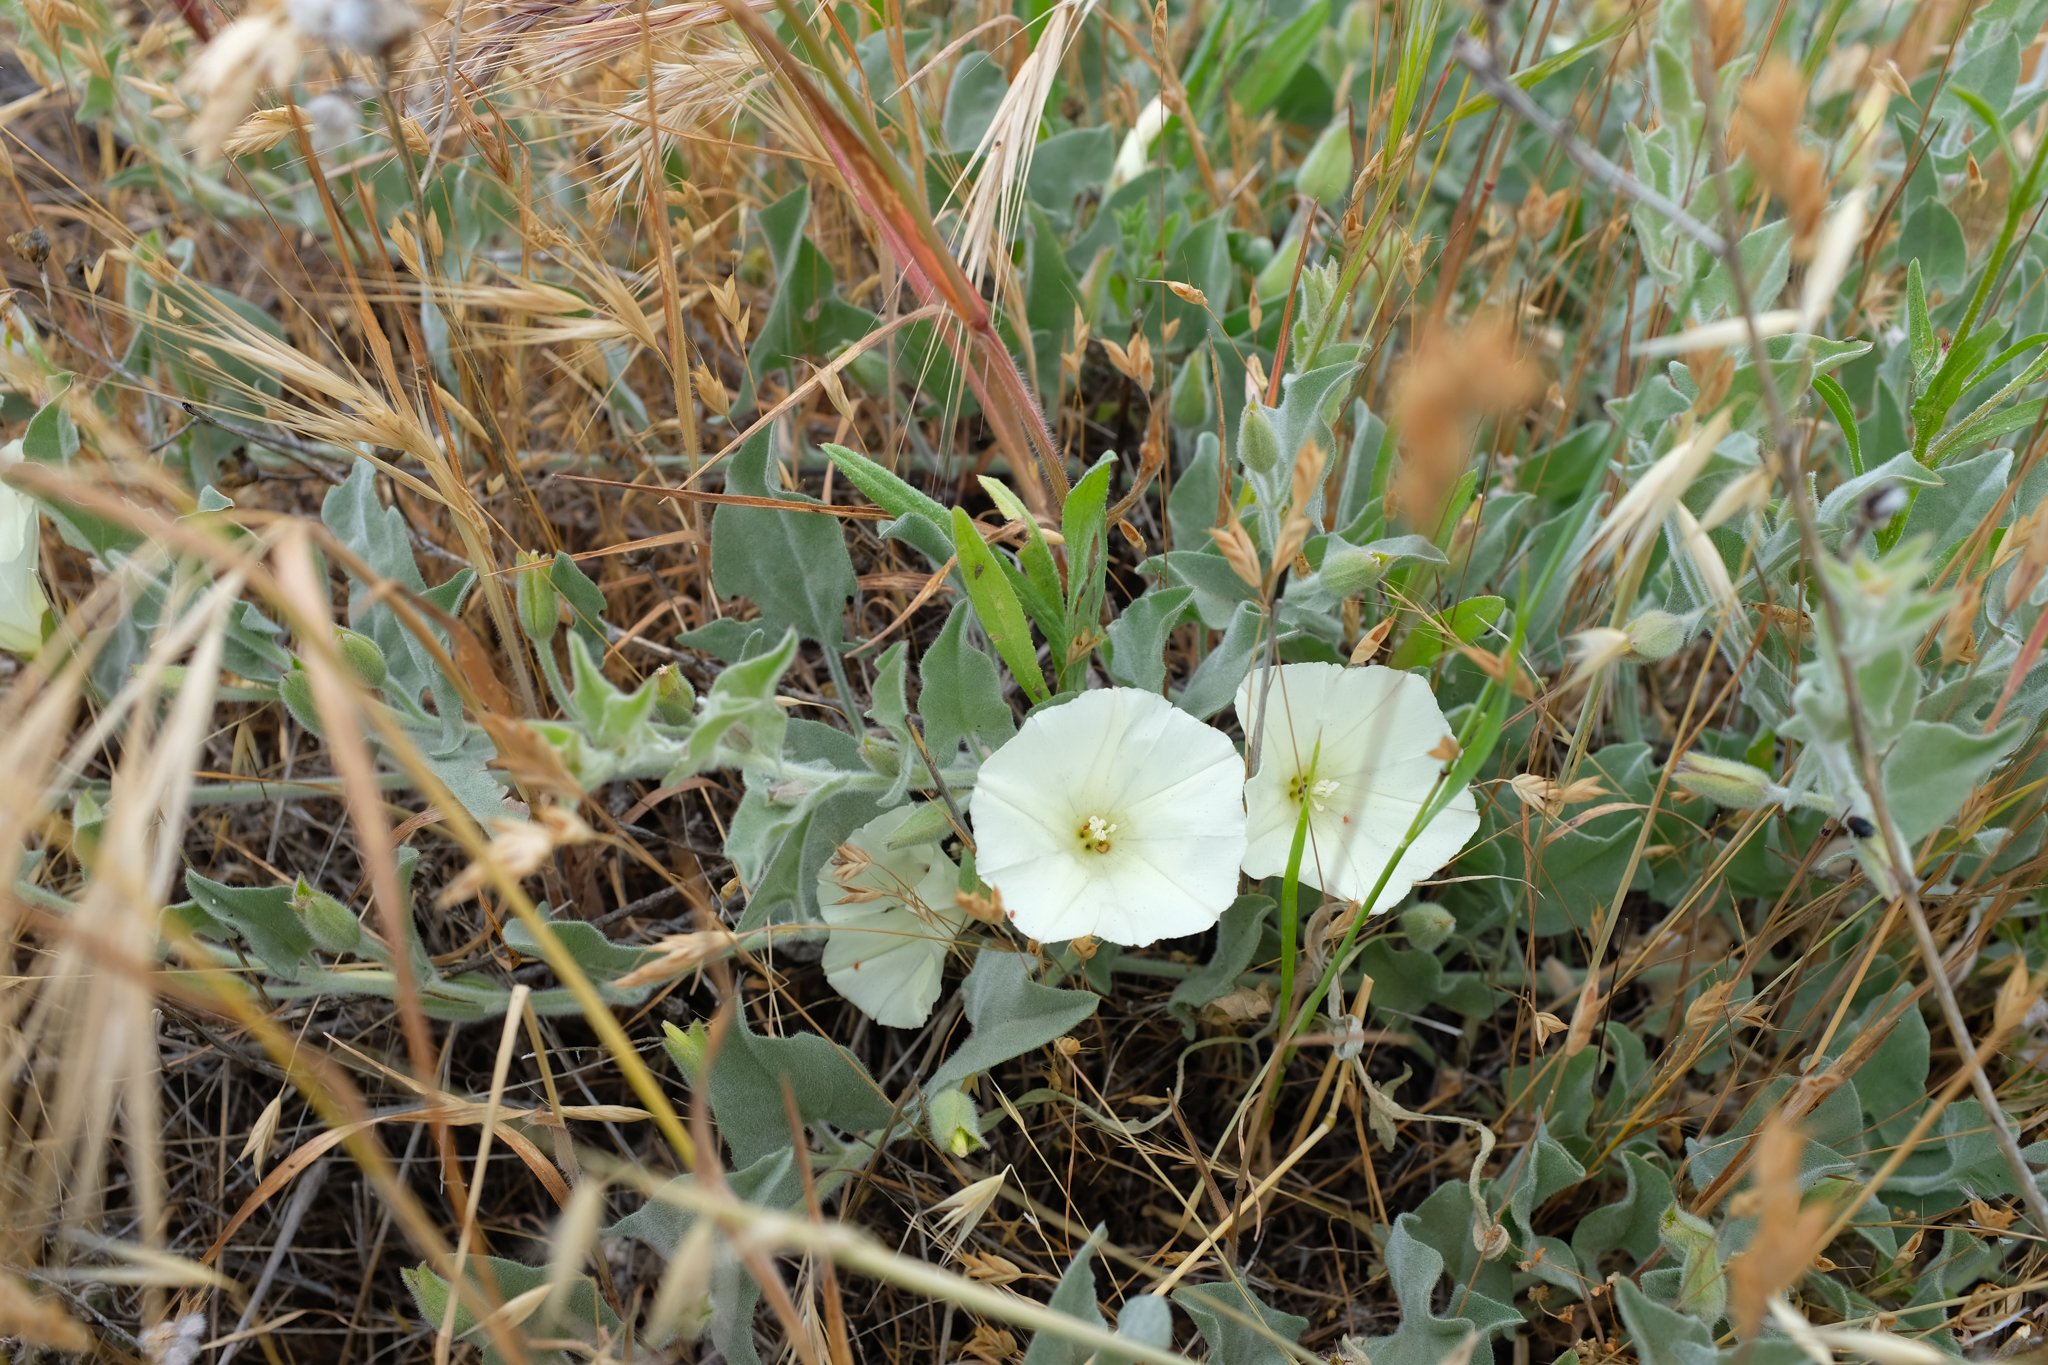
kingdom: Plantae
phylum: Tracheophyta
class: Magnoliopsida
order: Solanales
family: Convolvulaceae
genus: Calystegia
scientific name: Calystegia malacophylla
